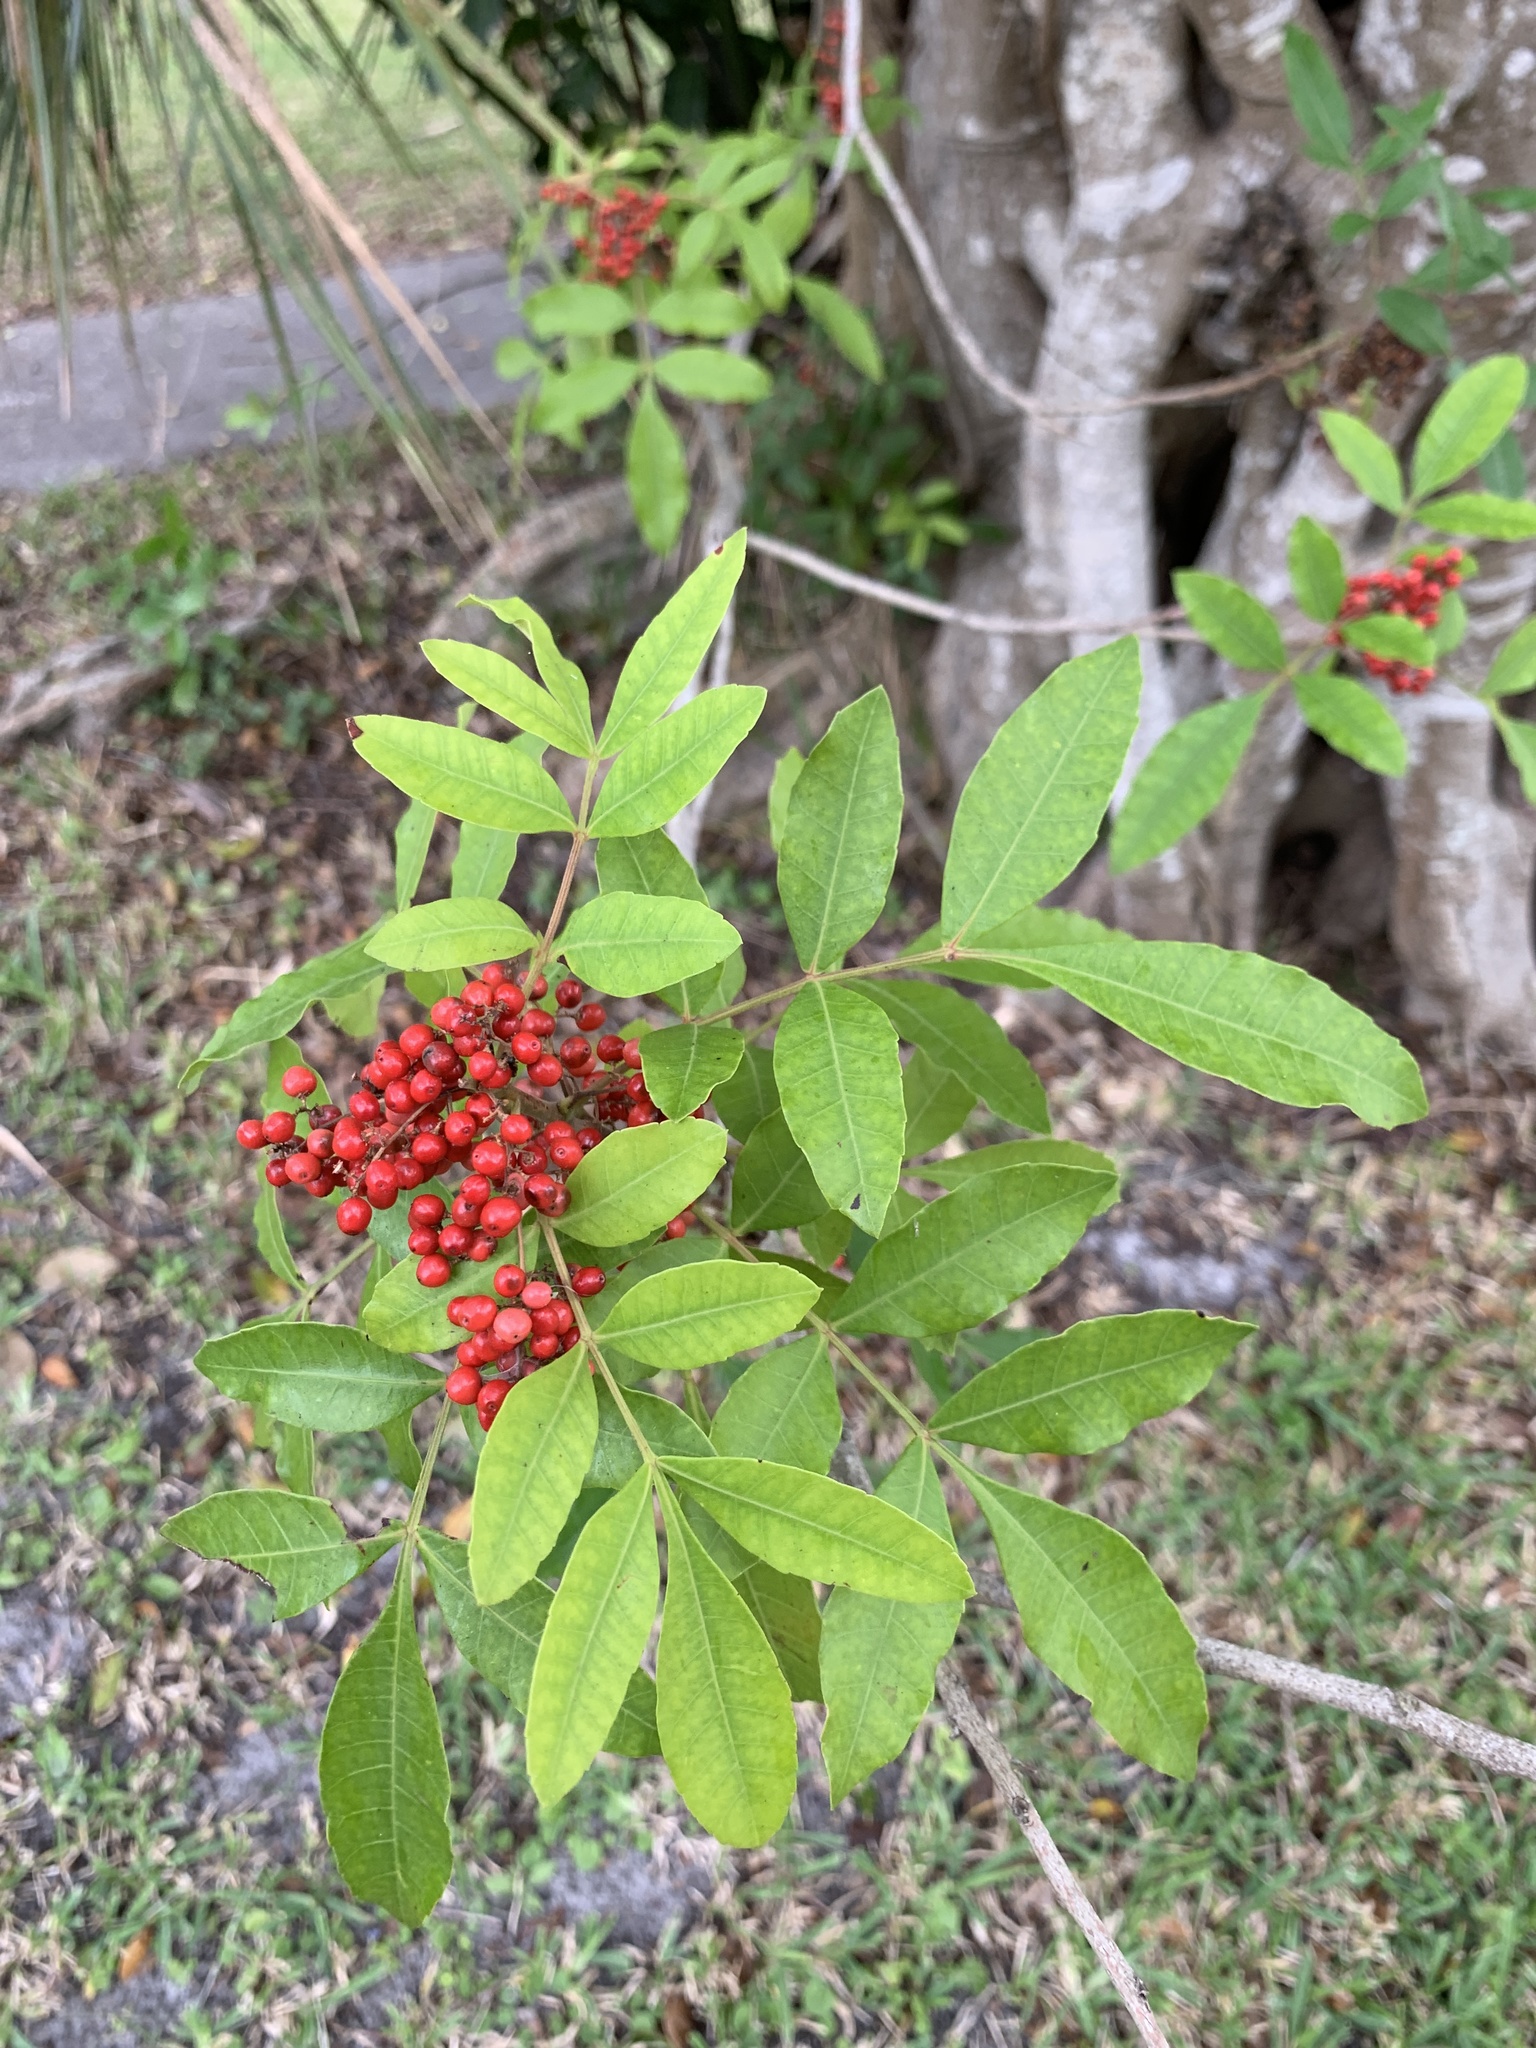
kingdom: Plantae
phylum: Tracheophyta
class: Magnoliopsida
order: Sapindales
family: Anacardiaceae
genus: Schinus
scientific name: Schinus terebinthifolia
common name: Brazilian peppertree
